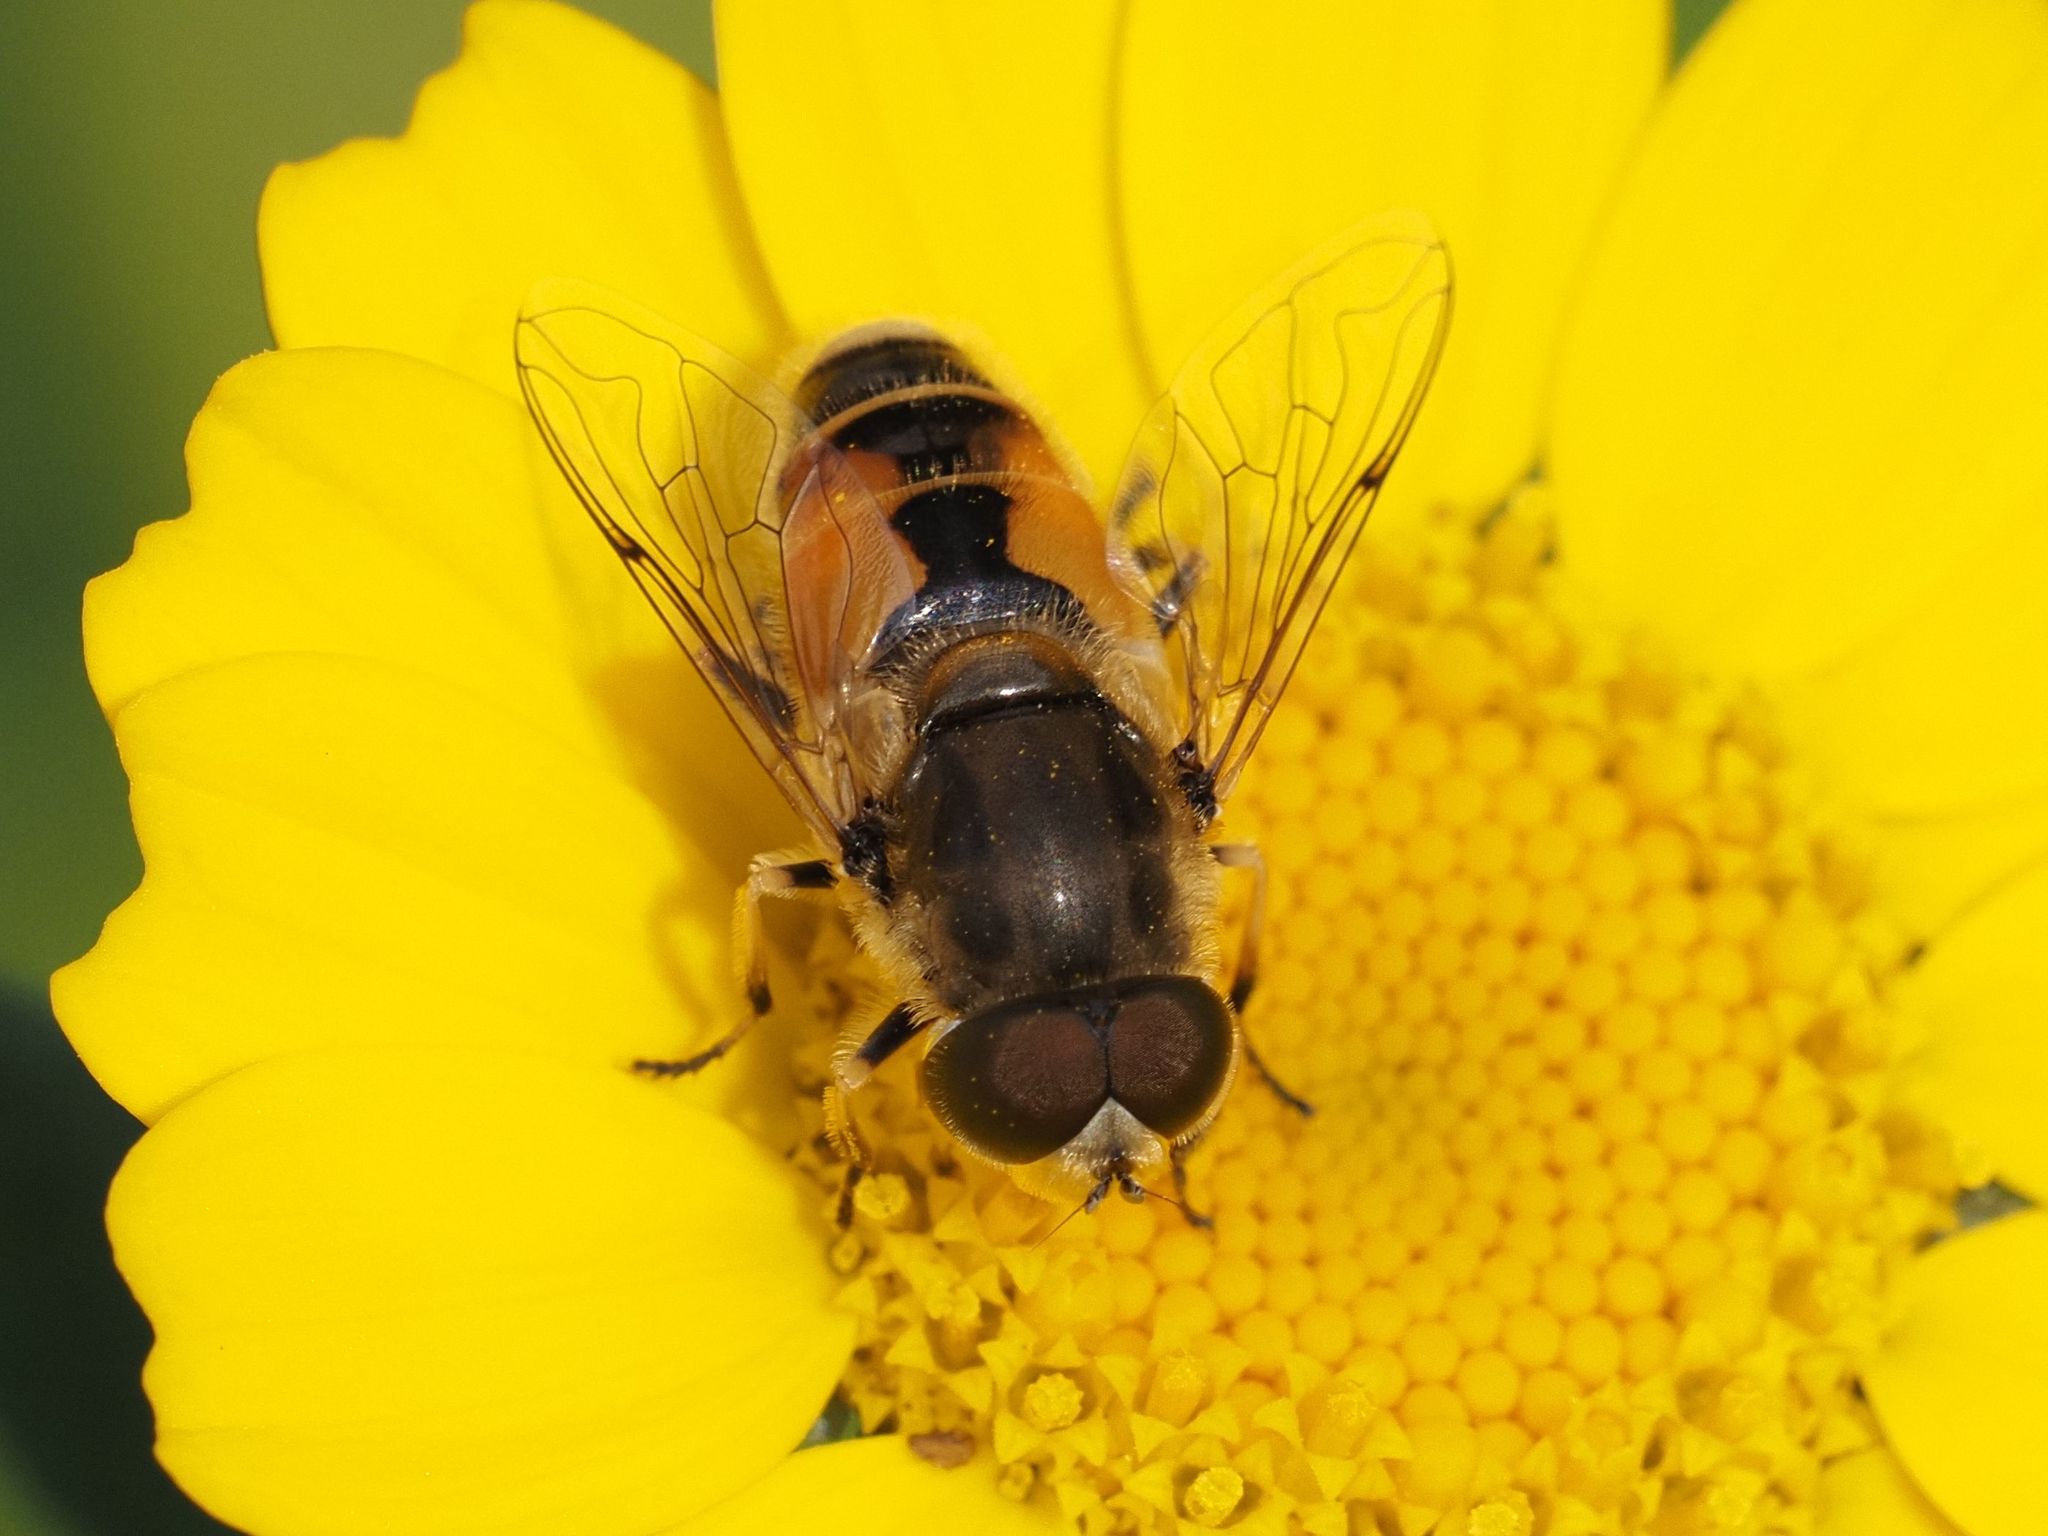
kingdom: Animalia
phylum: Arthropoda
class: Insecta
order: Diptera
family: Syrphidae
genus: Eristalis
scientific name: Eristalis arbustorum
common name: Hover fly
